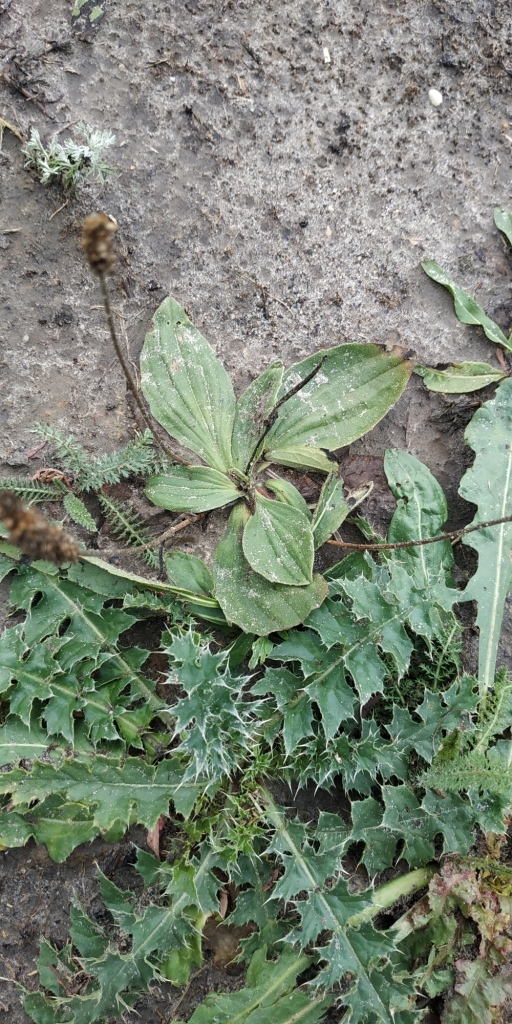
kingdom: Plantae
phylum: Tracheophyta
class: Magnoliopsida
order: Lamiales
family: Plantaginaceae
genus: Plantago
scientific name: Plantago major
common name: Common plantain
